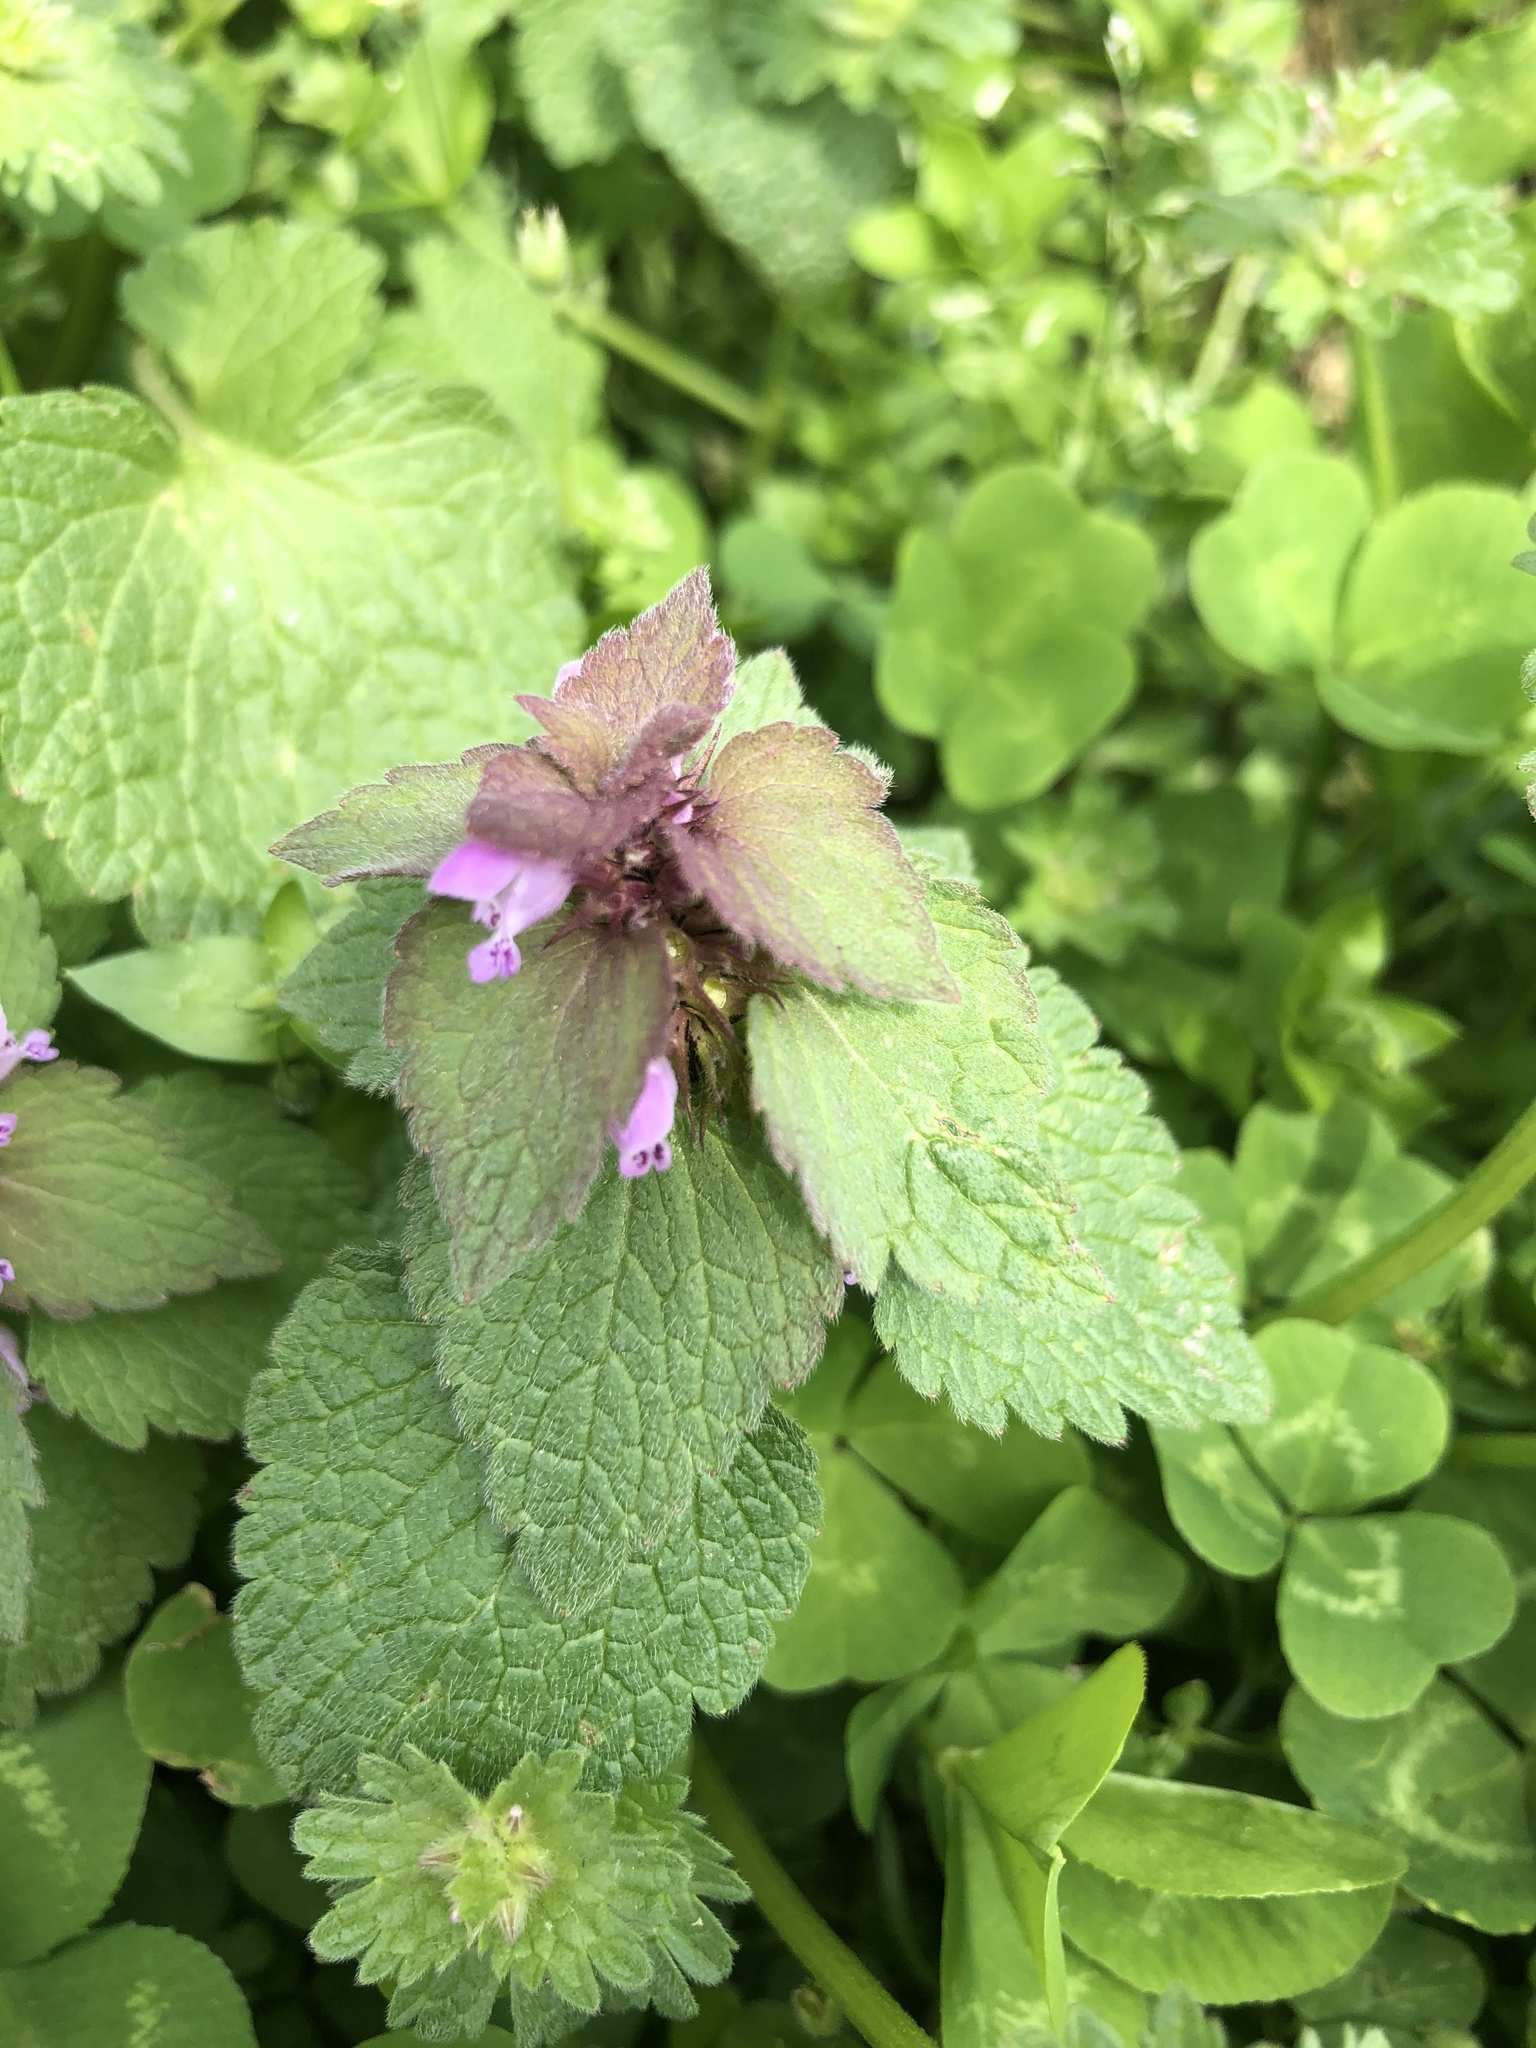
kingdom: Plantae
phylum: Tracheophyta
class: Magnoliopsida
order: Lamiales
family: Lamiaceae
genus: Lamium
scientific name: Lamium purpureum
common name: Red dead-nettle
